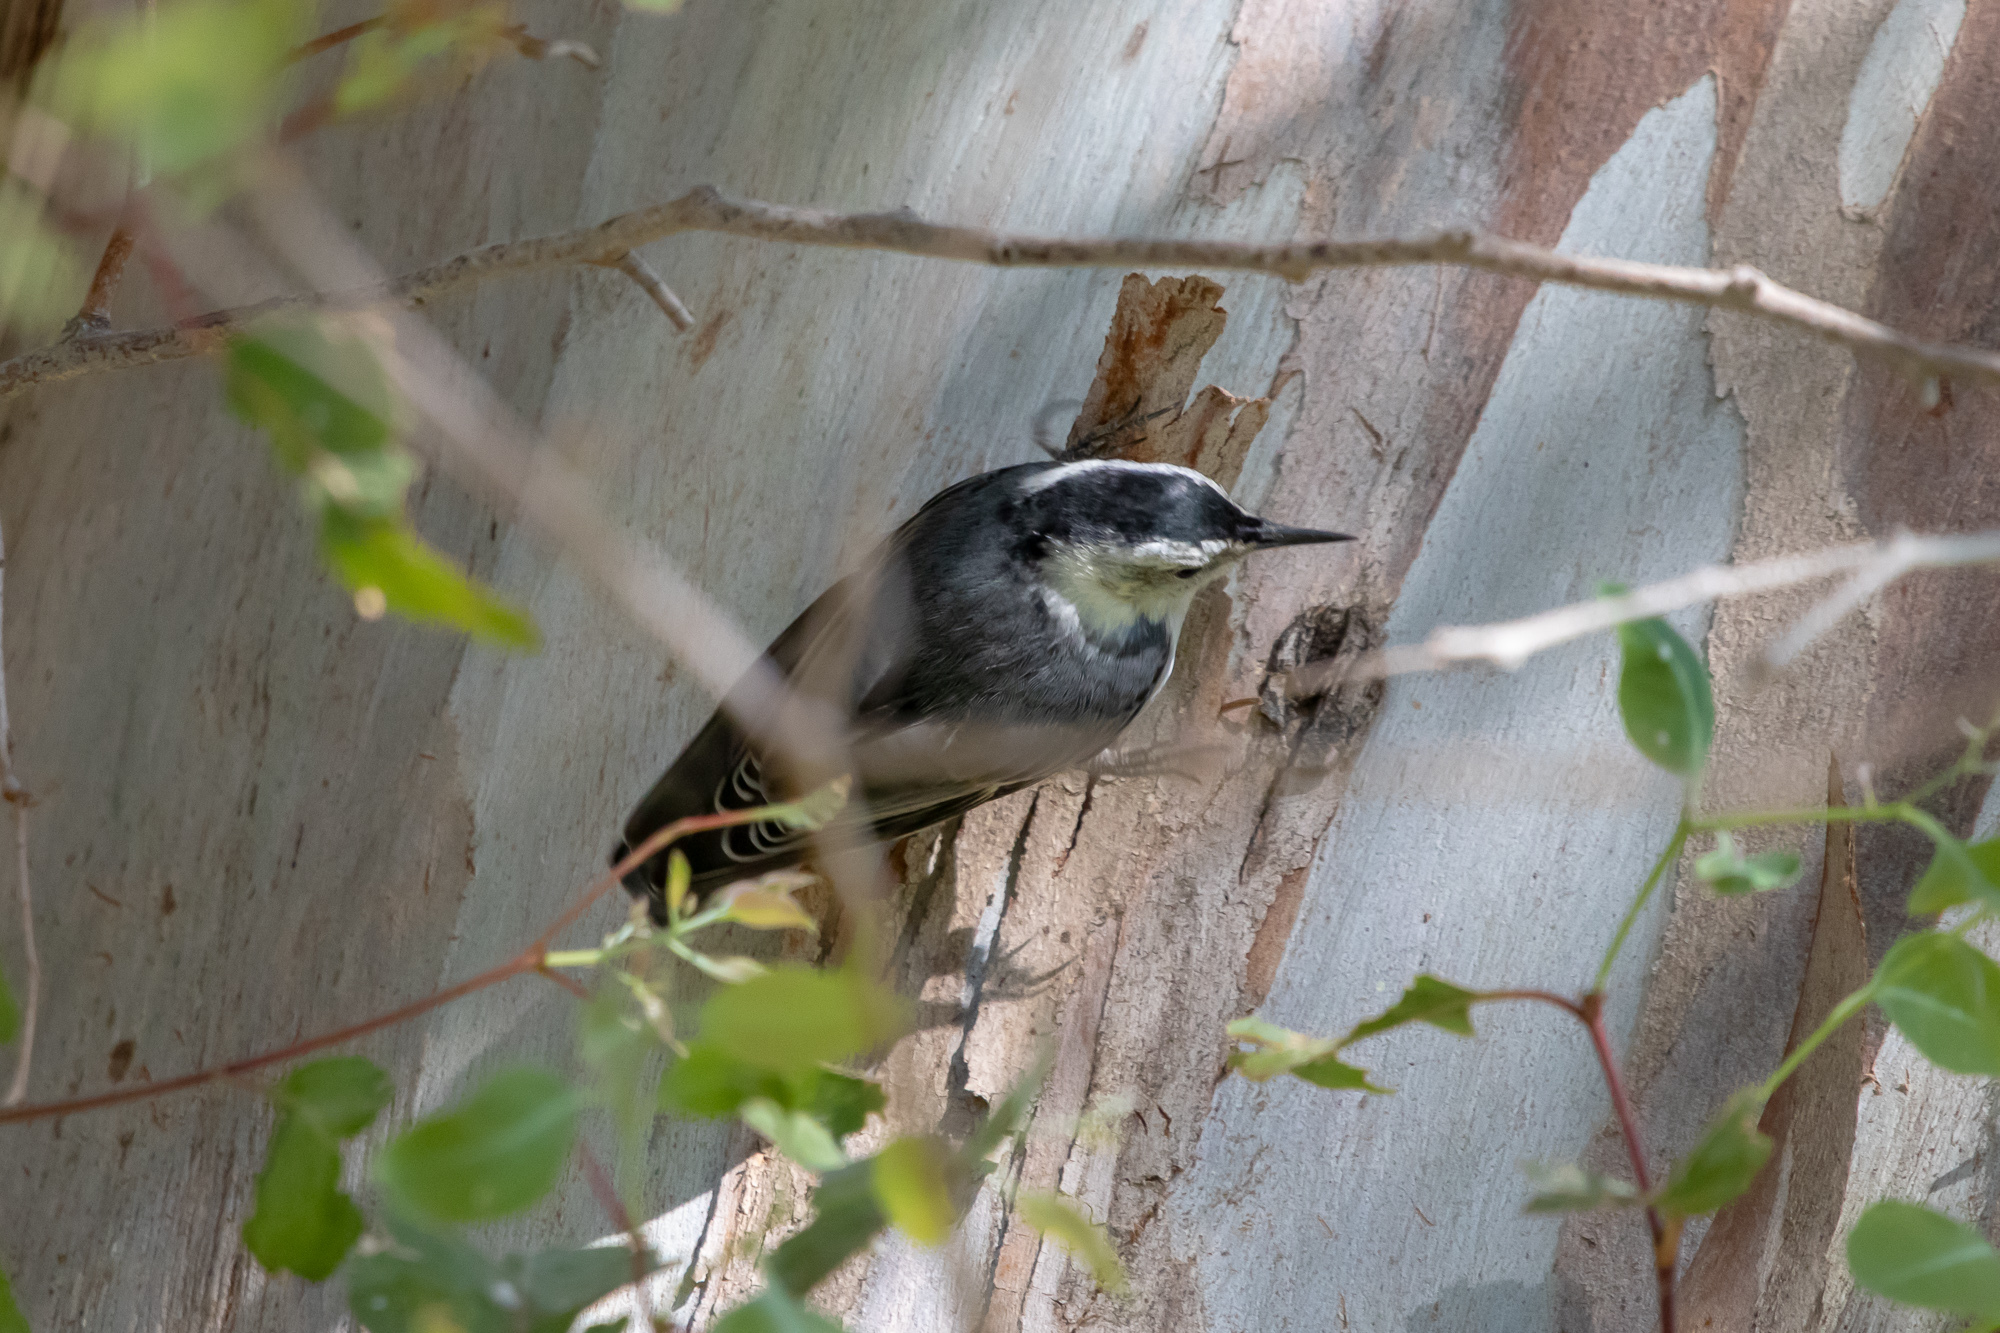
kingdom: Animalia
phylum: Chordata
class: Aves
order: Passeriformes
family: Sittidae
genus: Sitta
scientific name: Sitta carolinensis
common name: White-breasted nuthatch
